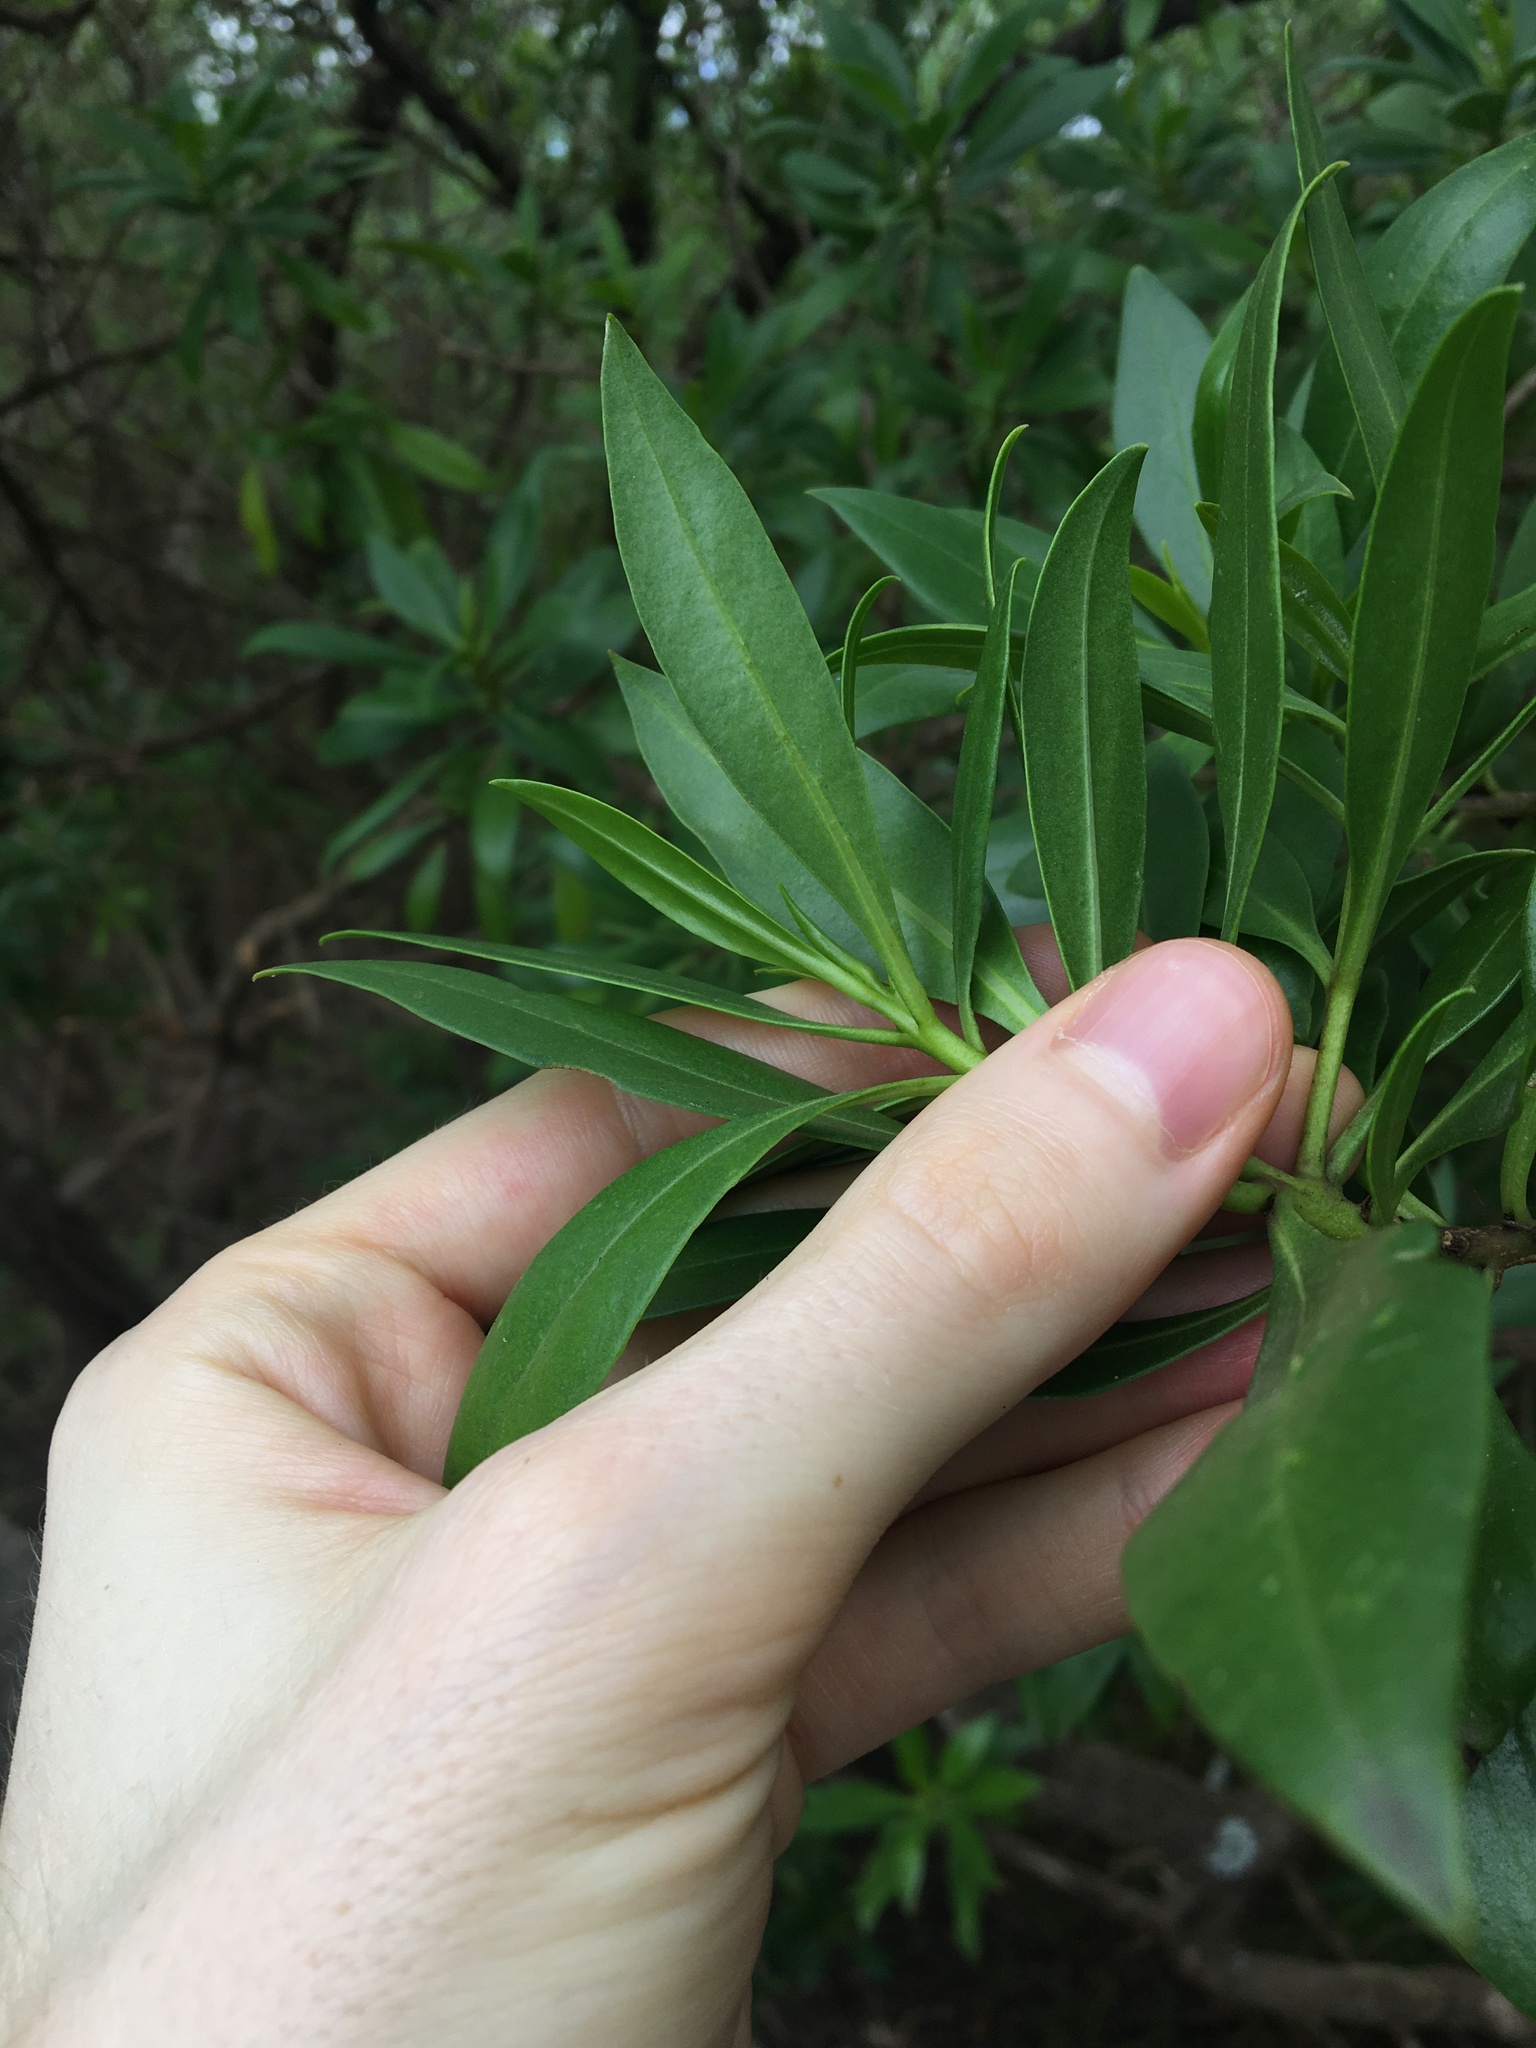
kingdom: Plantae
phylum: Tracheophyta
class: Magnoliopsida
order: Lamiales
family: Scrophulariaceae
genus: Myoporum
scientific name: Myoporum acuminatum
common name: Pointed boobialla
